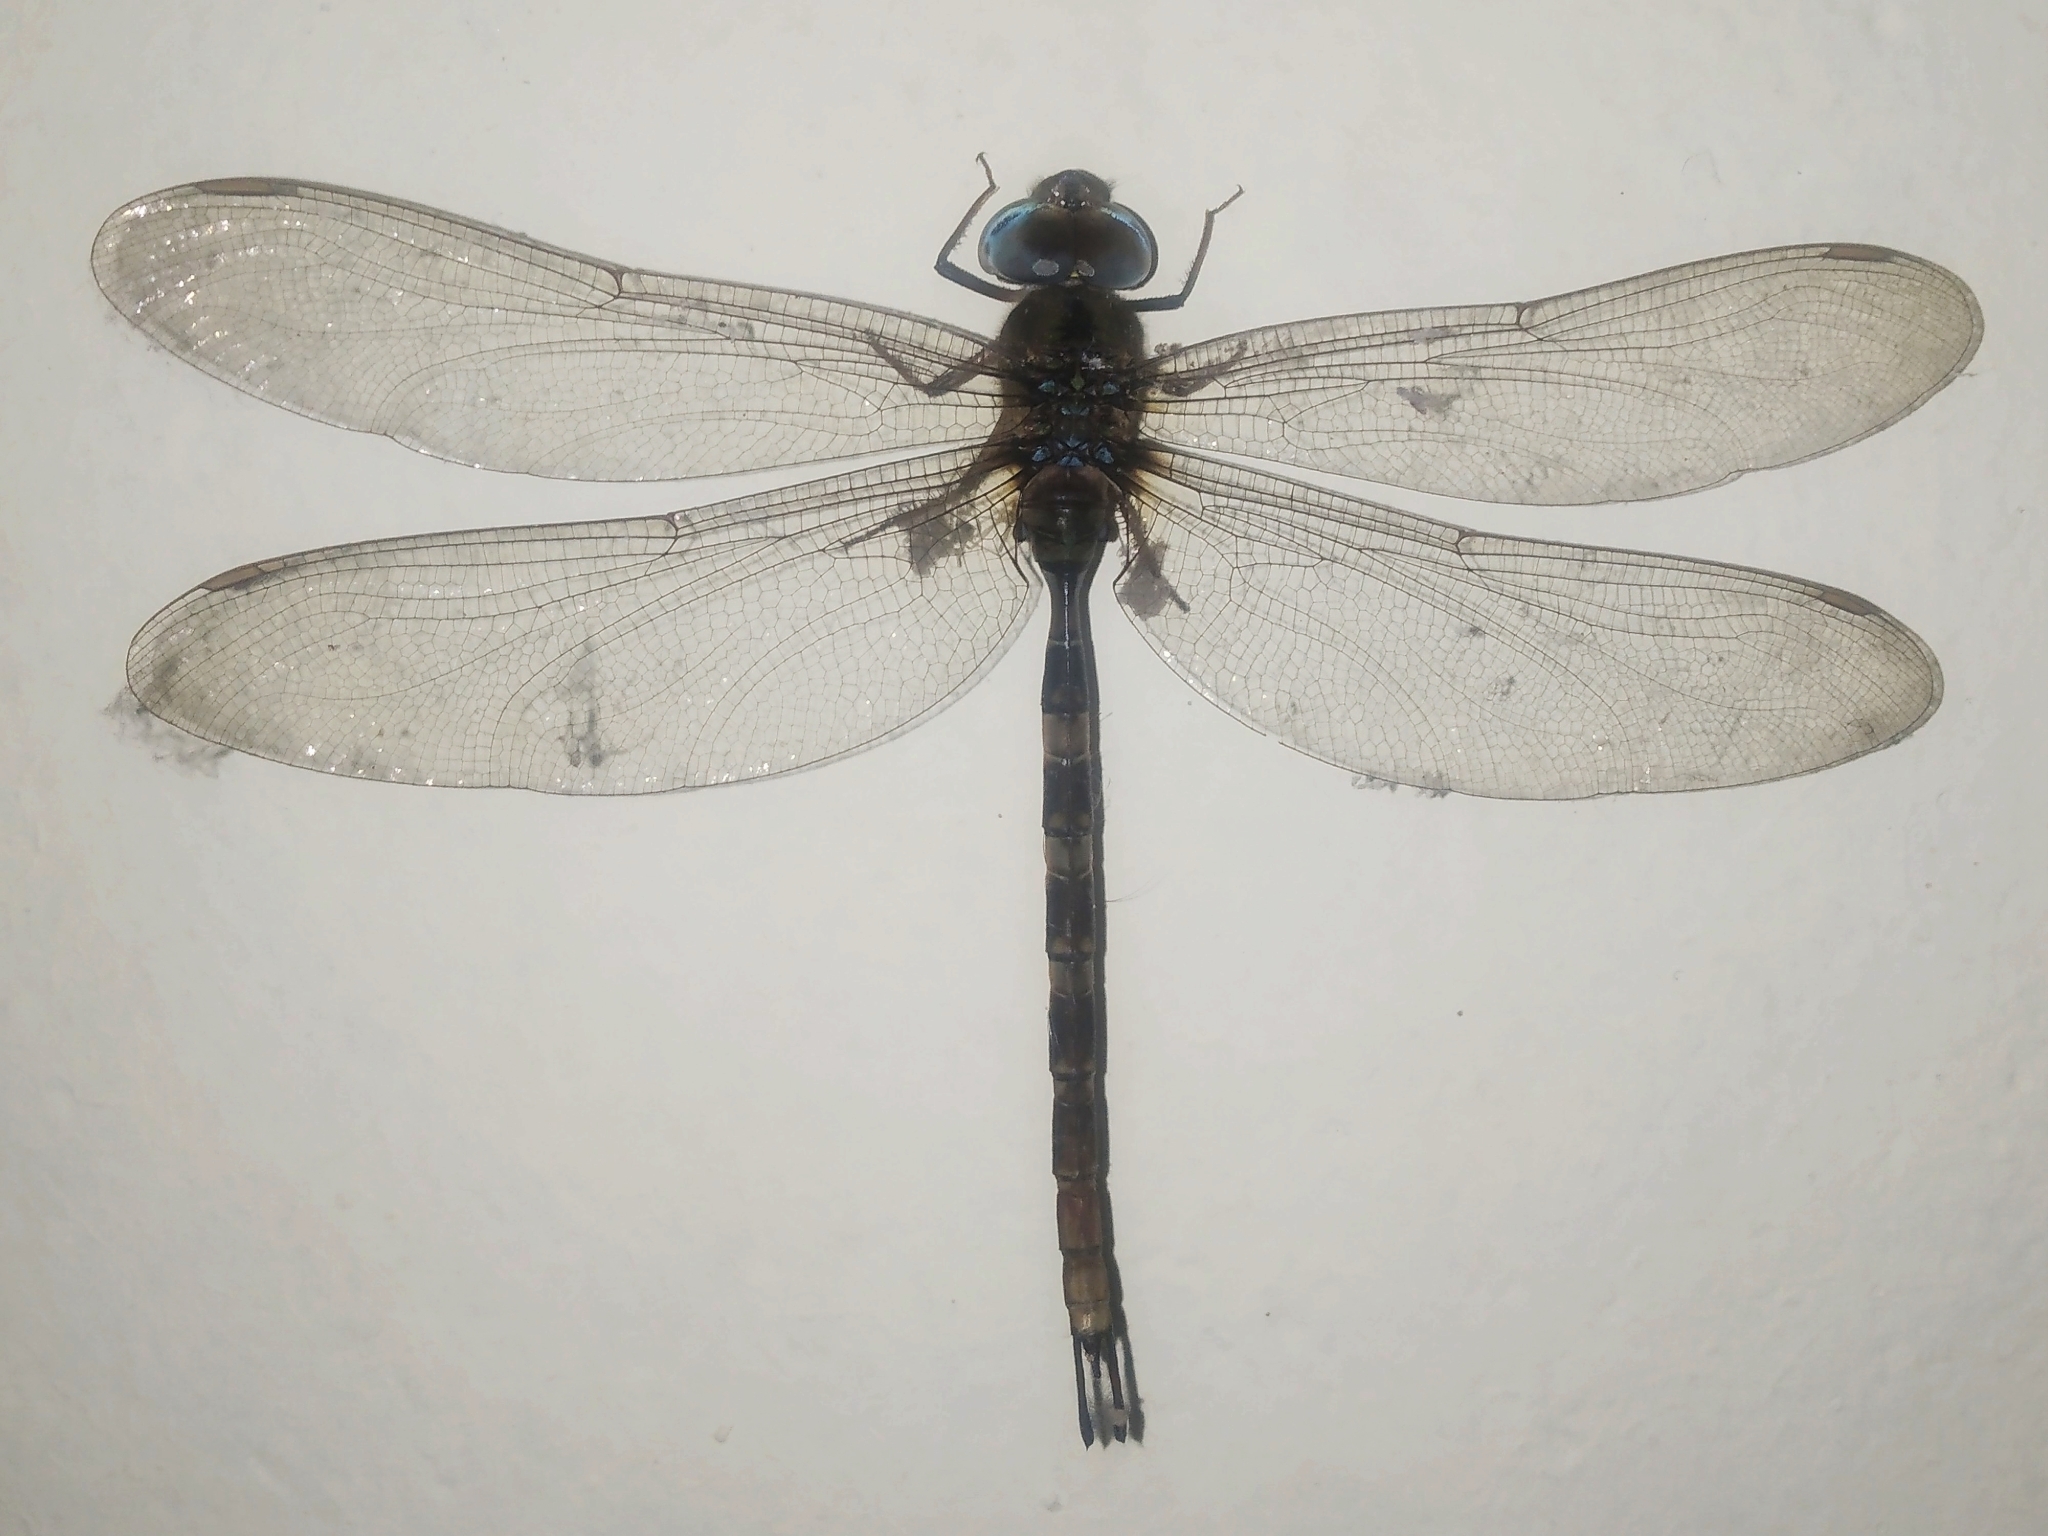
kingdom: Animalia
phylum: Arthropoda
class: Insecta
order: Odonata
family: Aeshnidae
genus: Gynacantha
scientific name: Gynacantha dravida
